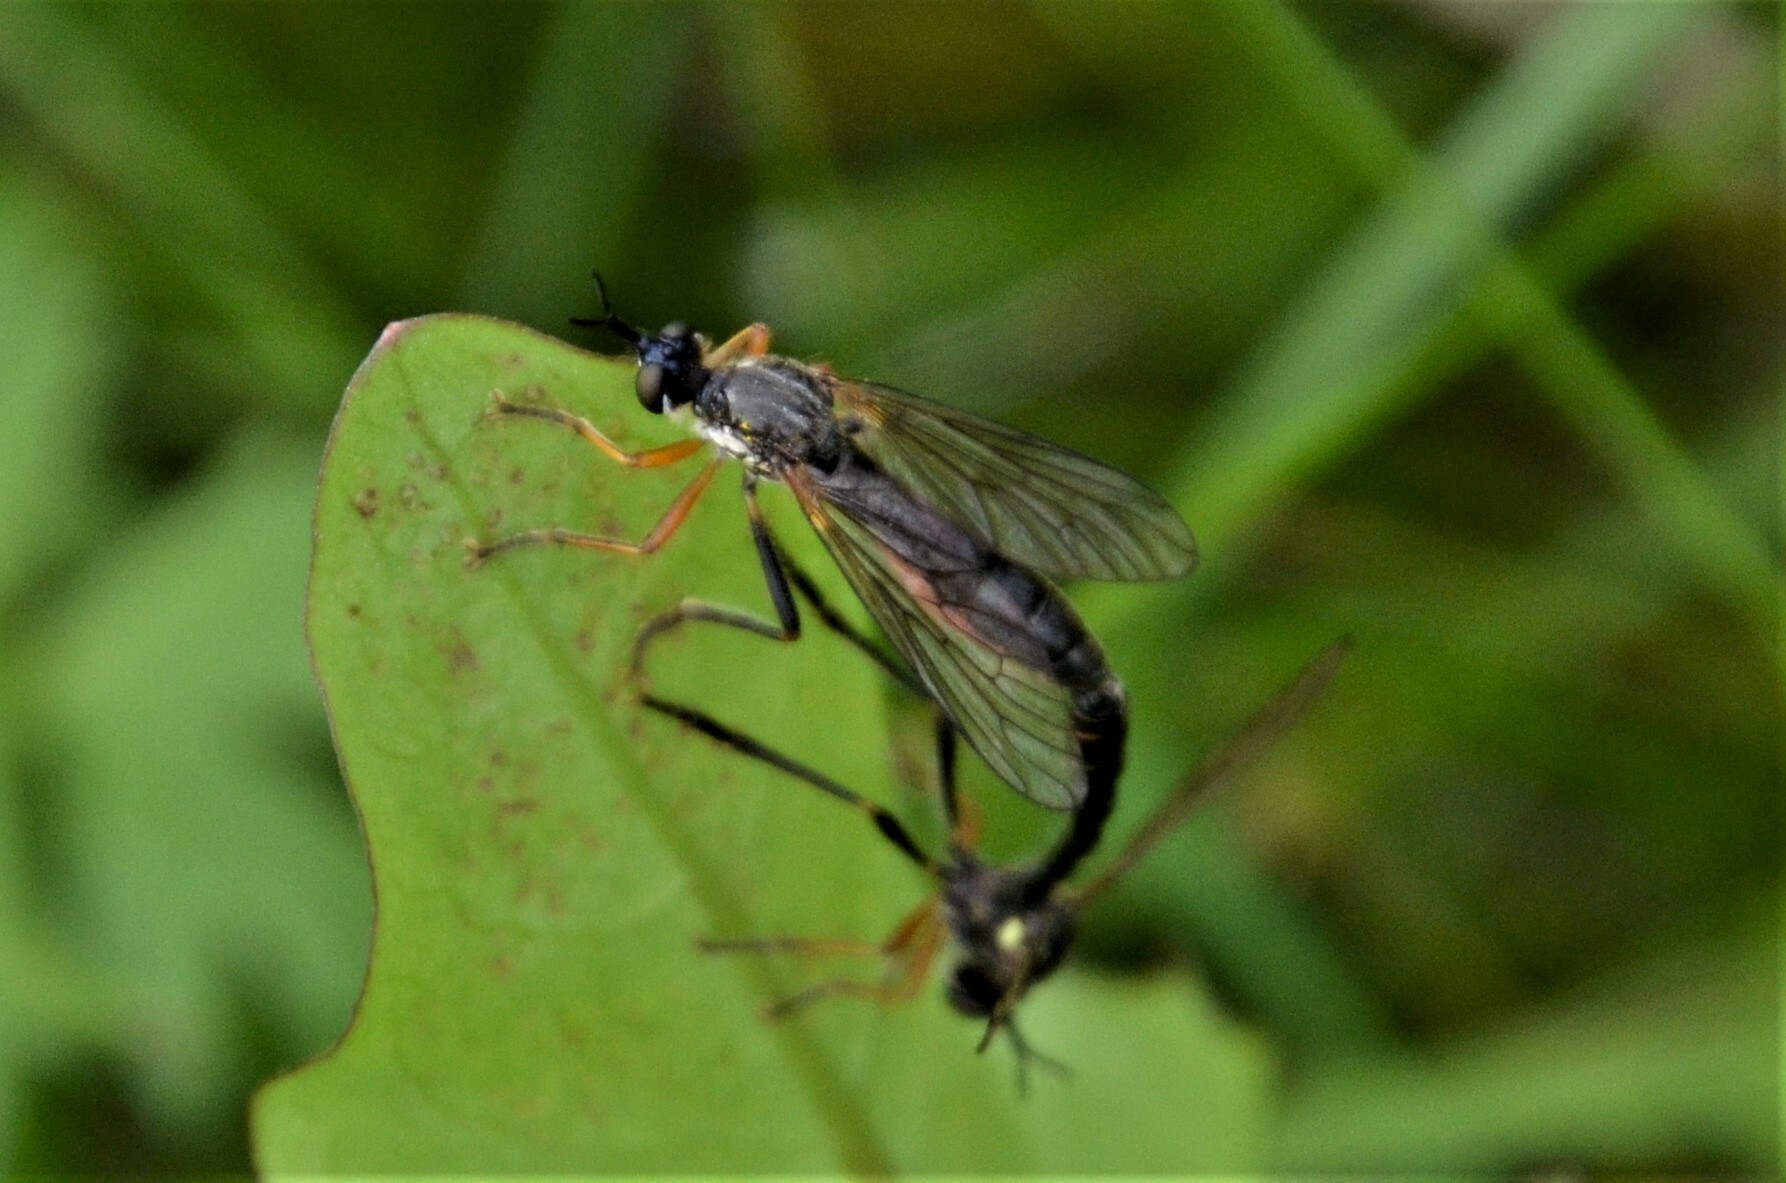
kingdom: Animalia
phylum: Arthropoda
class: Insecta
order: Diptera
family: Asilidae
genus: Dioctria
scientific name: Dioctria rufipes
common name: Common red-legged robberfly
